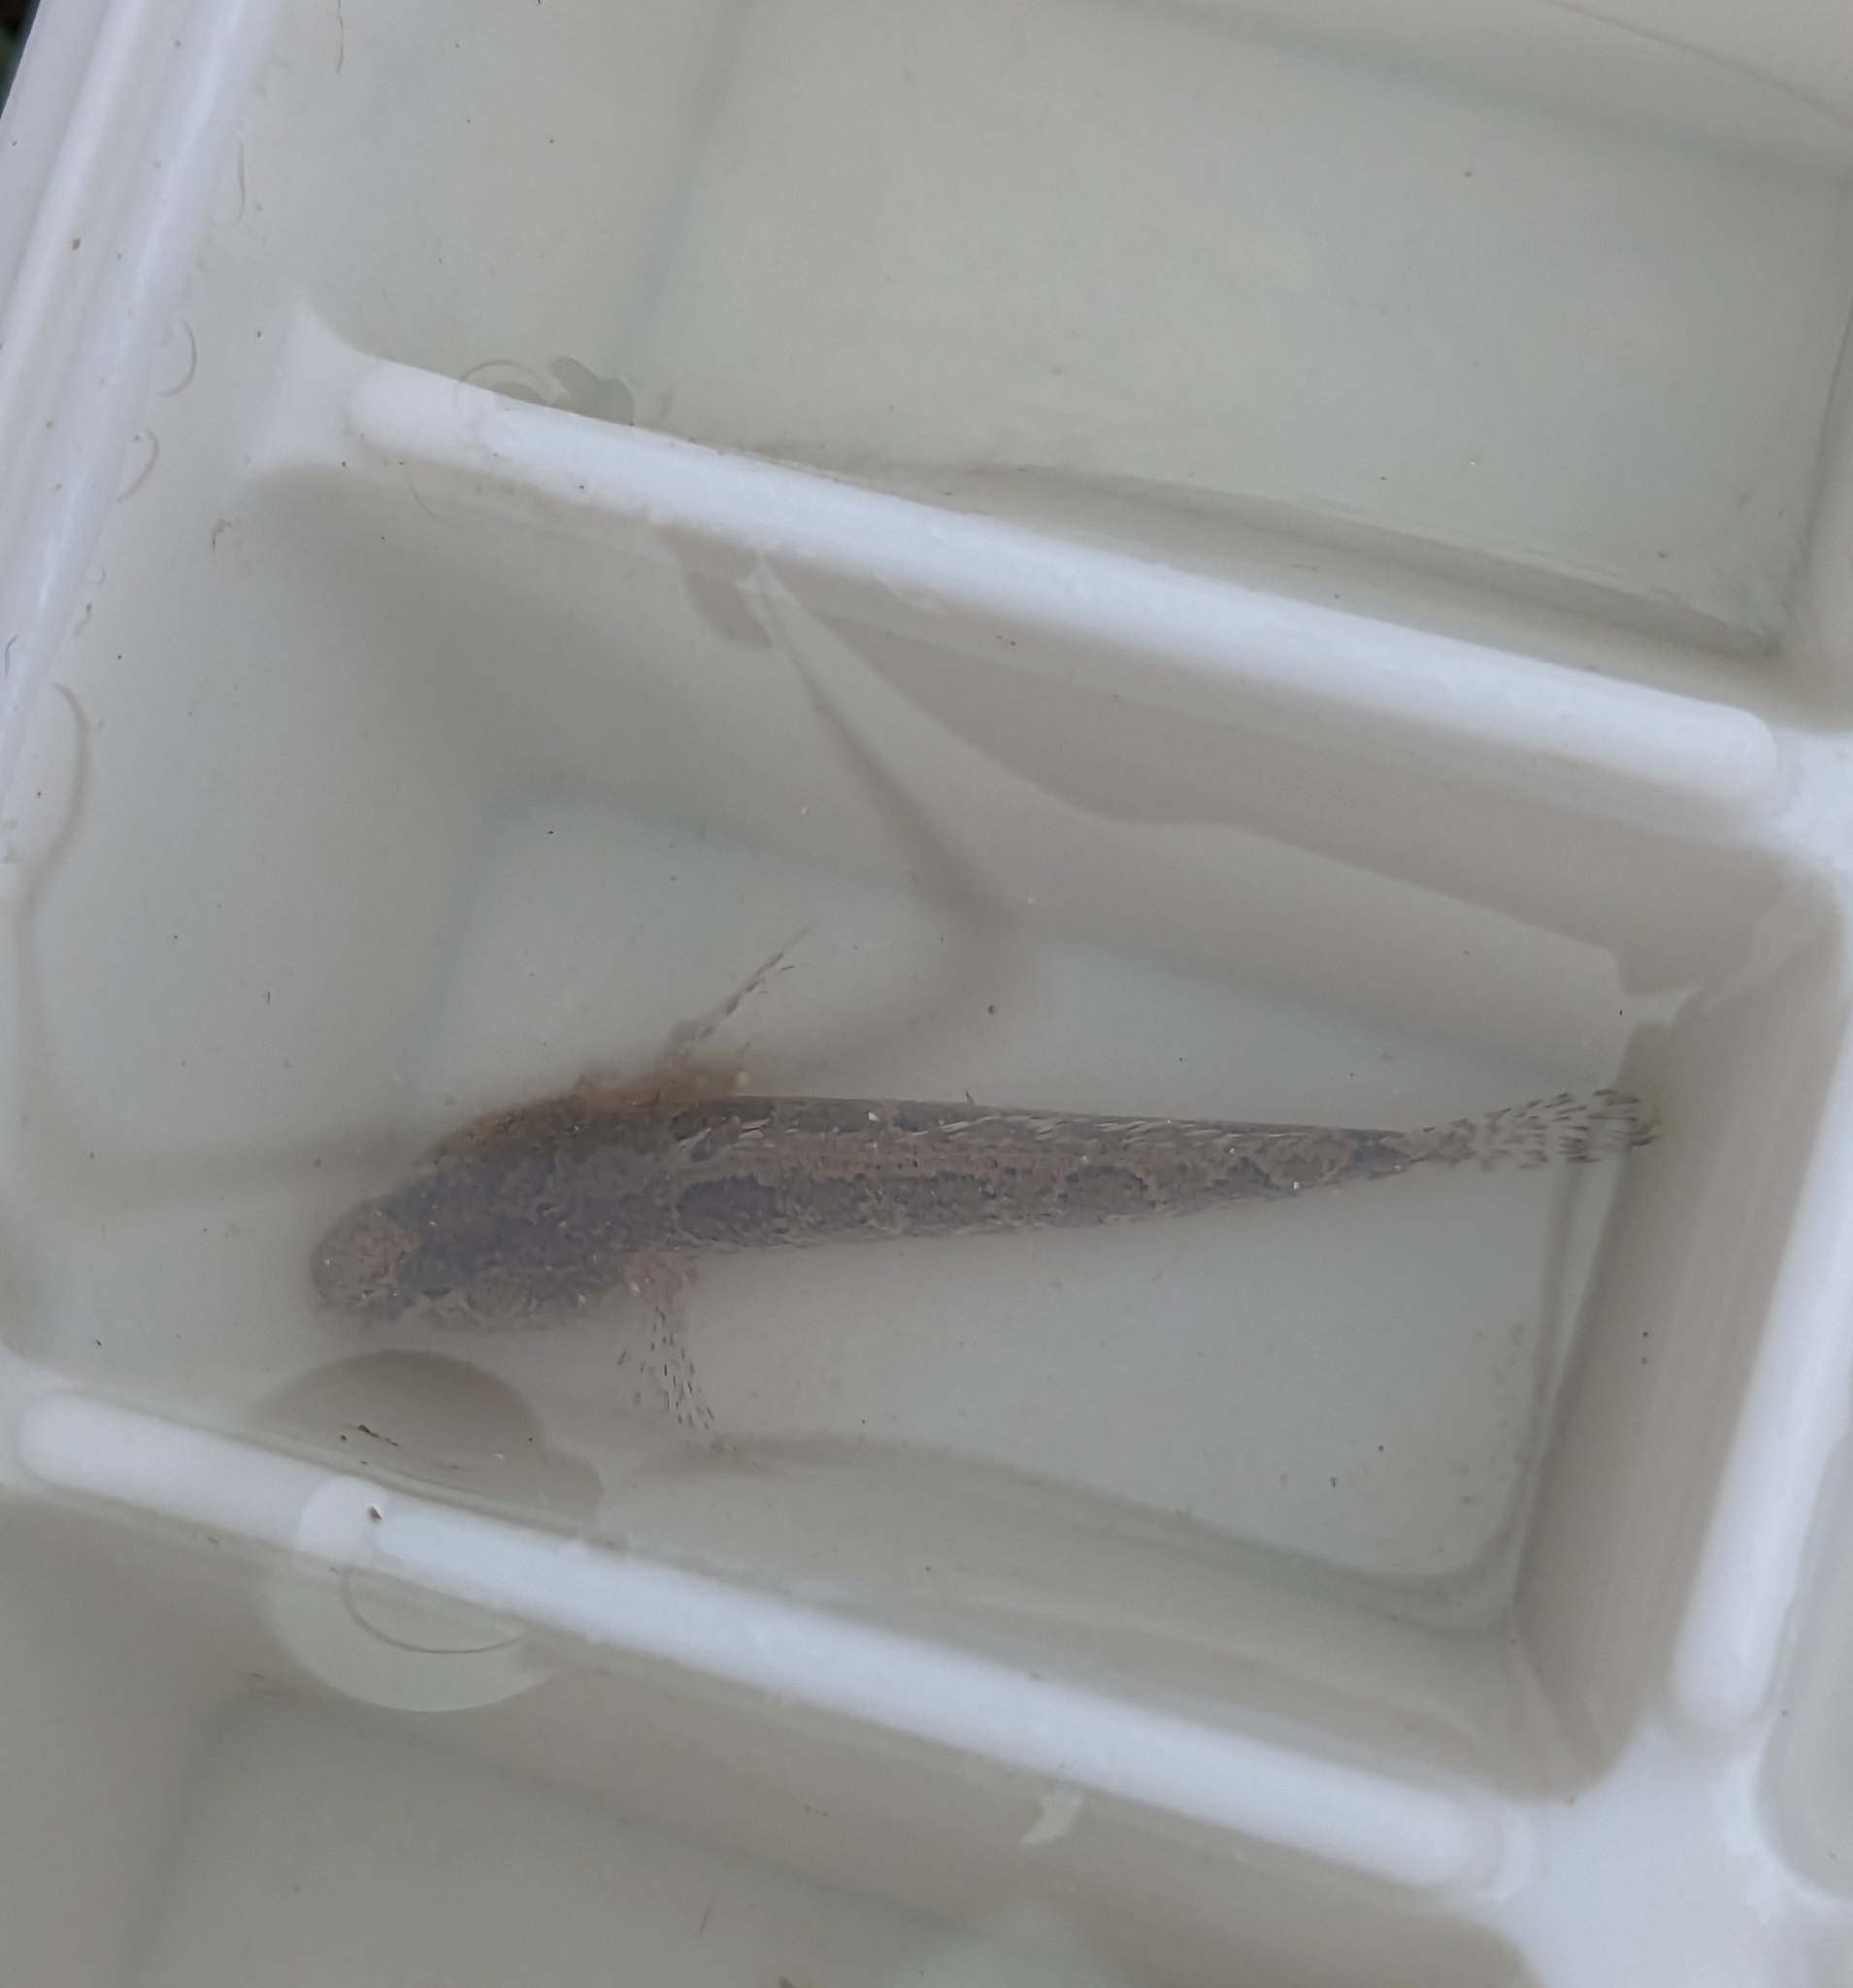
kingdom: Animalia
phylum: Chordata
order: Perciformes
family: Gobiidae
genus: Proterorhinus
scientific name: Proterorhinus semilunaris
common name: Western tubenose goby
